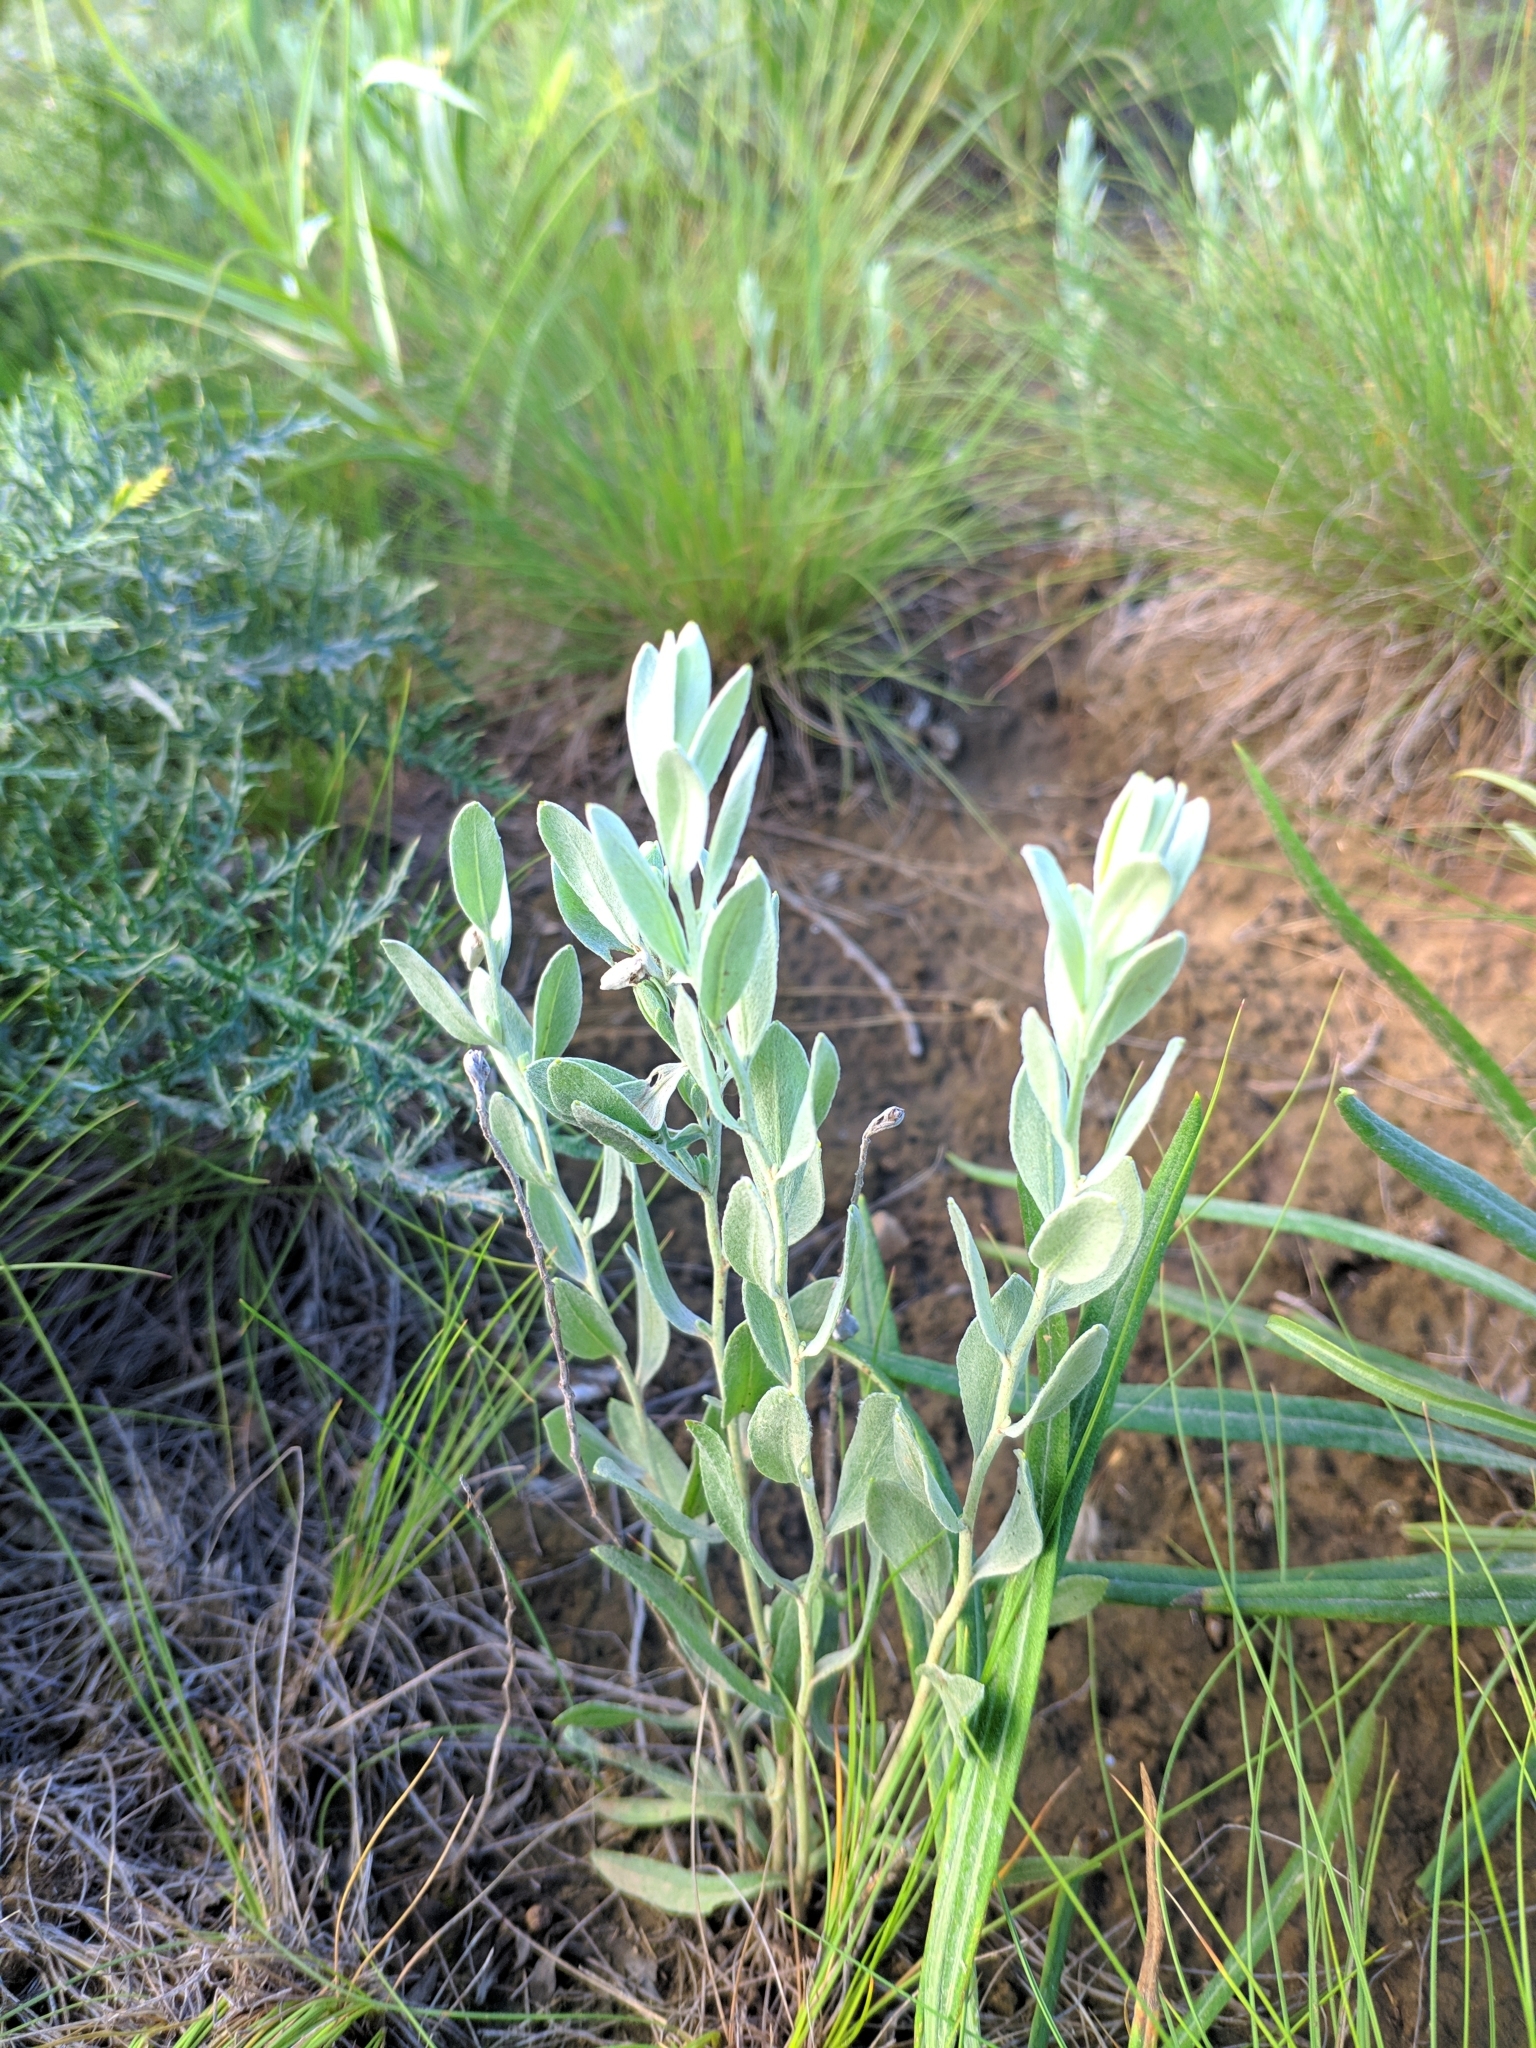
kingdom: Plantae
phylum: Tracheophyta
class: Magnoliopsida
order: Asterales
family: Asteraceae
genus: Galatella
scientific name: Galatella villosa
